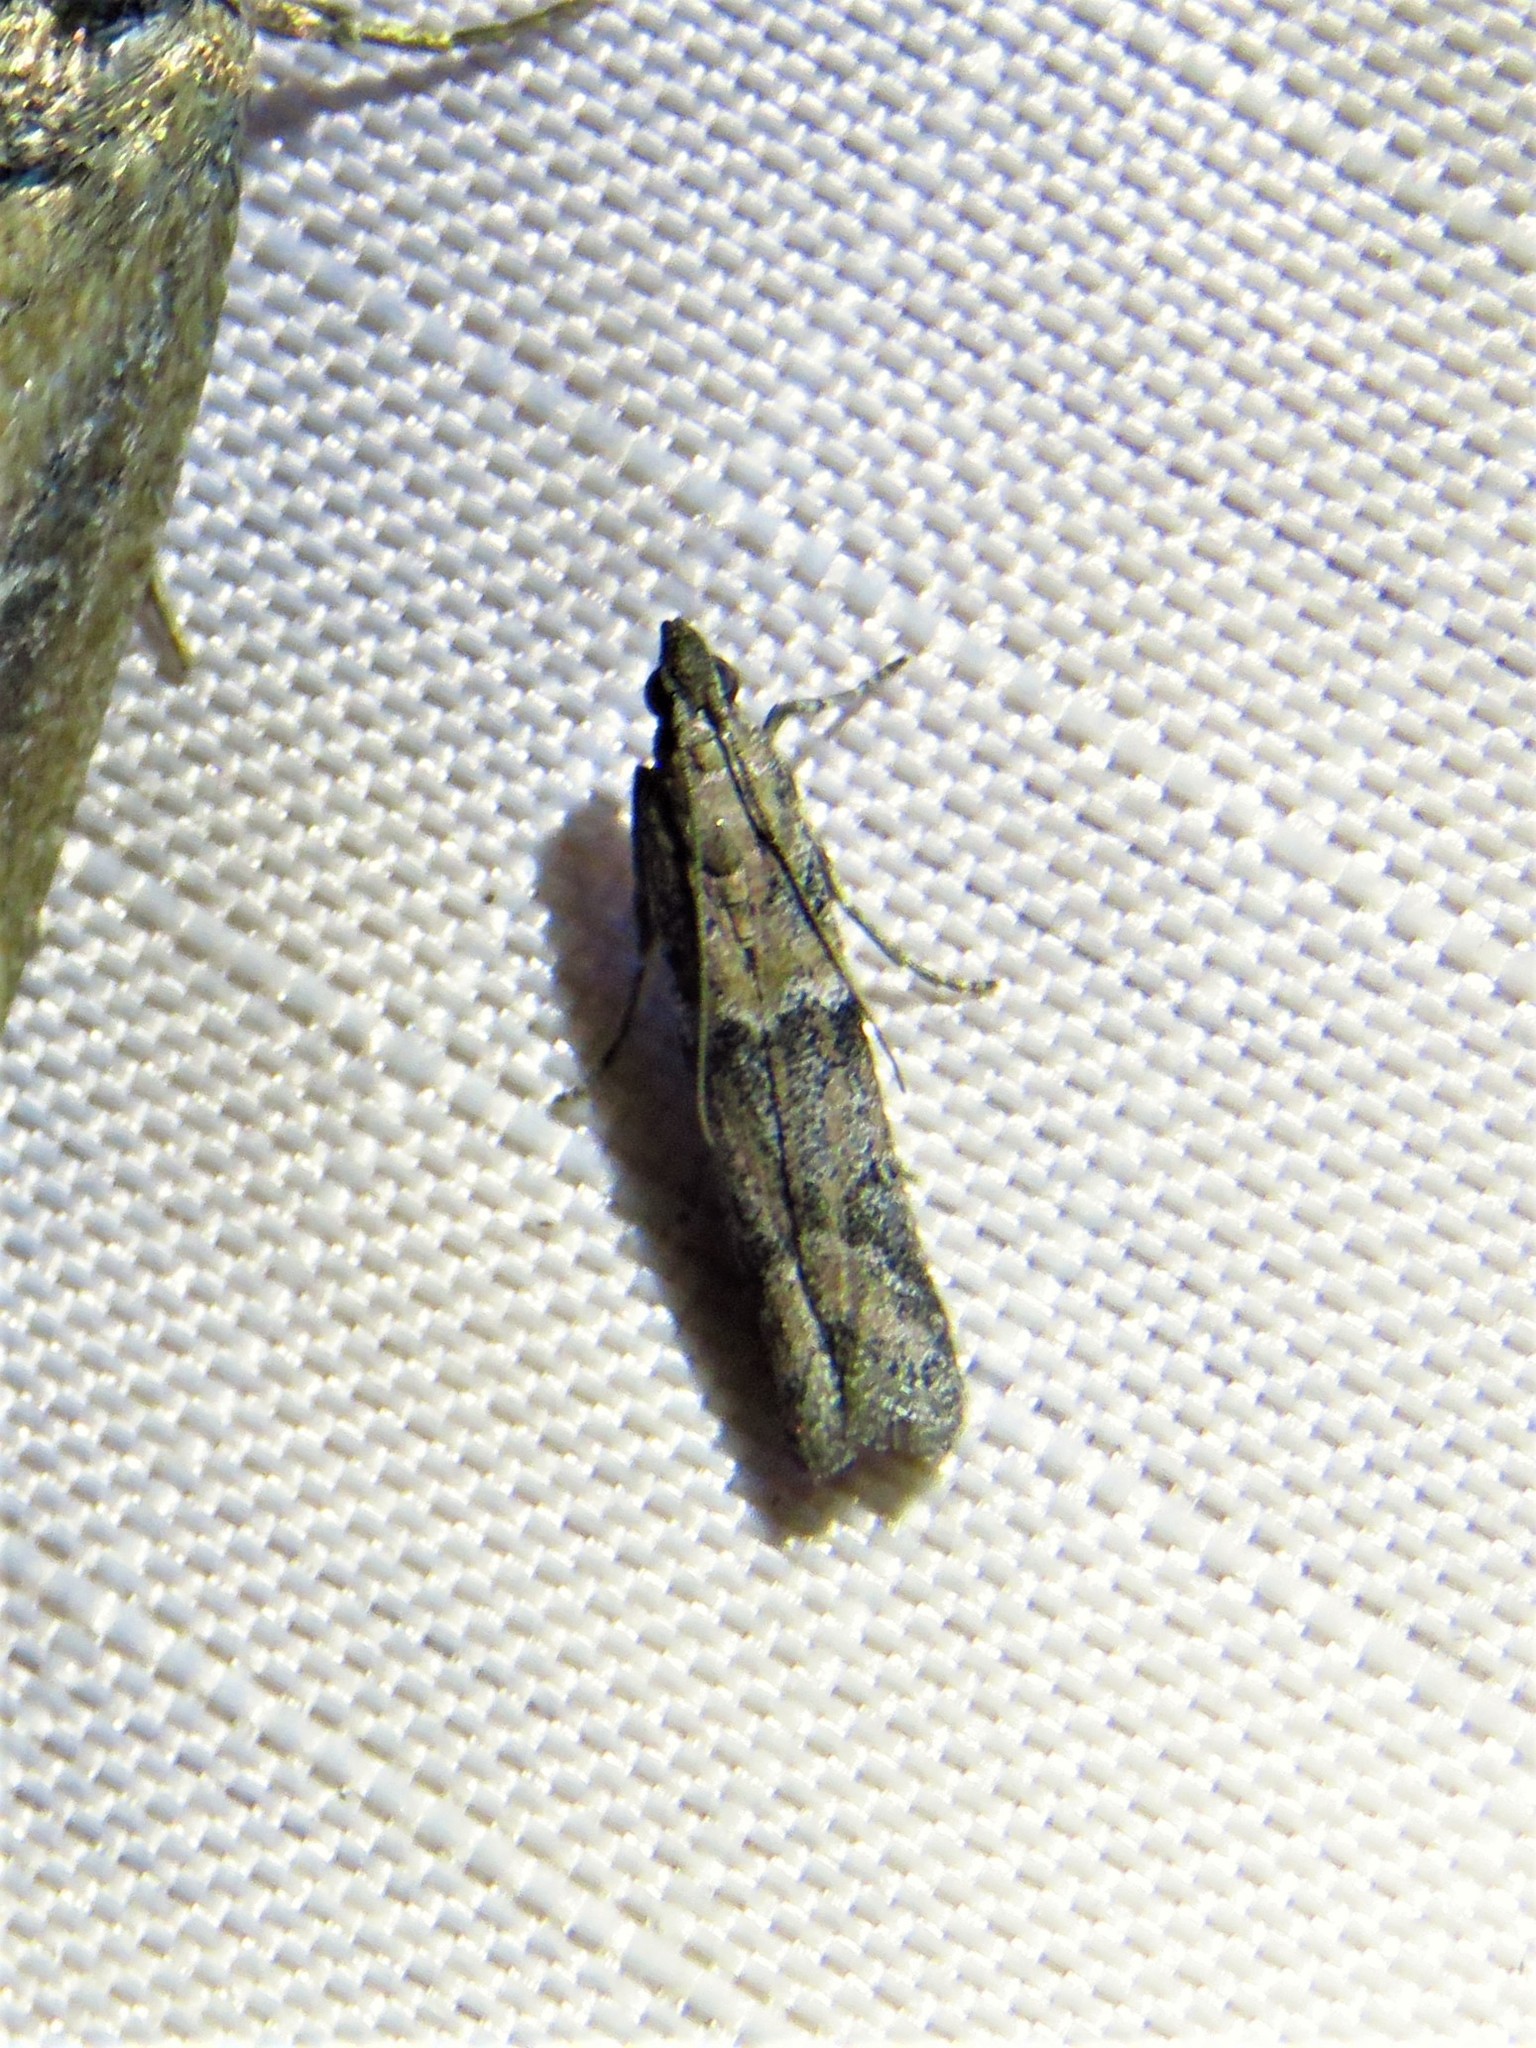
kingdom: Animalia
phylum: Arthropoda
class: Insecta
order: Lepidoptera
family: Pyralidae
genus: Ephestiodes
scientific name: Ephestiodes gilvescentella
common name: Moth
